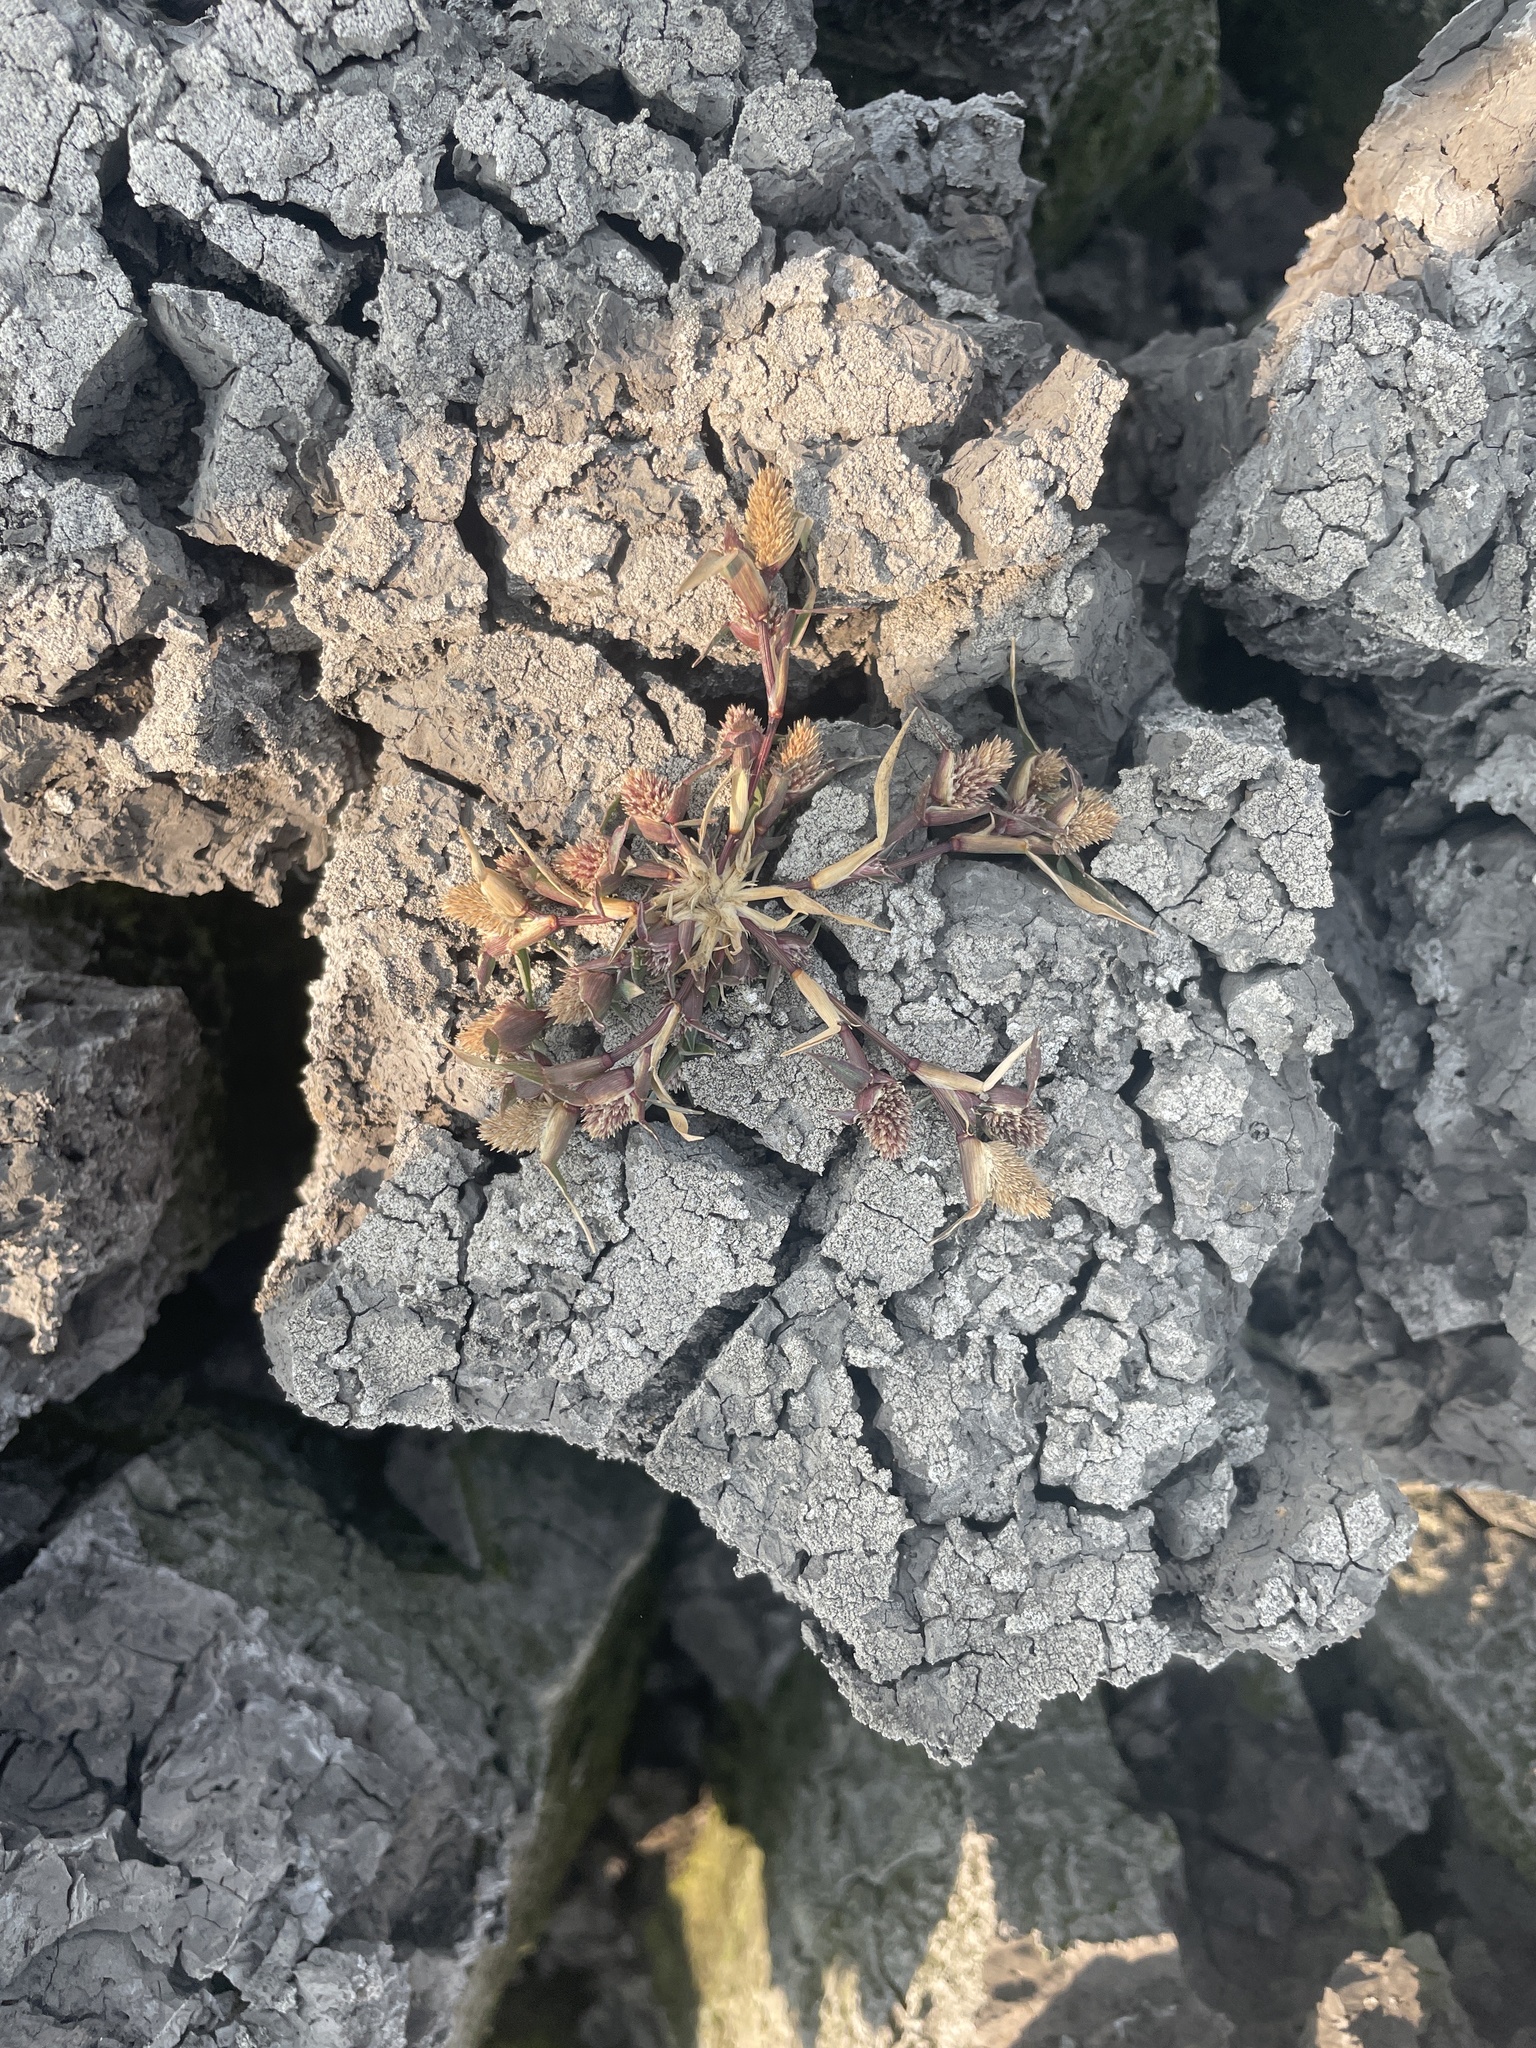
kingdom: Plantae
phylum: Tracheophyta
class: Liliopsida
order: Poales
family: Poaceae
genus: Sporobolus
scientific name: Sporobolus schoenoides
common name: Rush-like timothy
